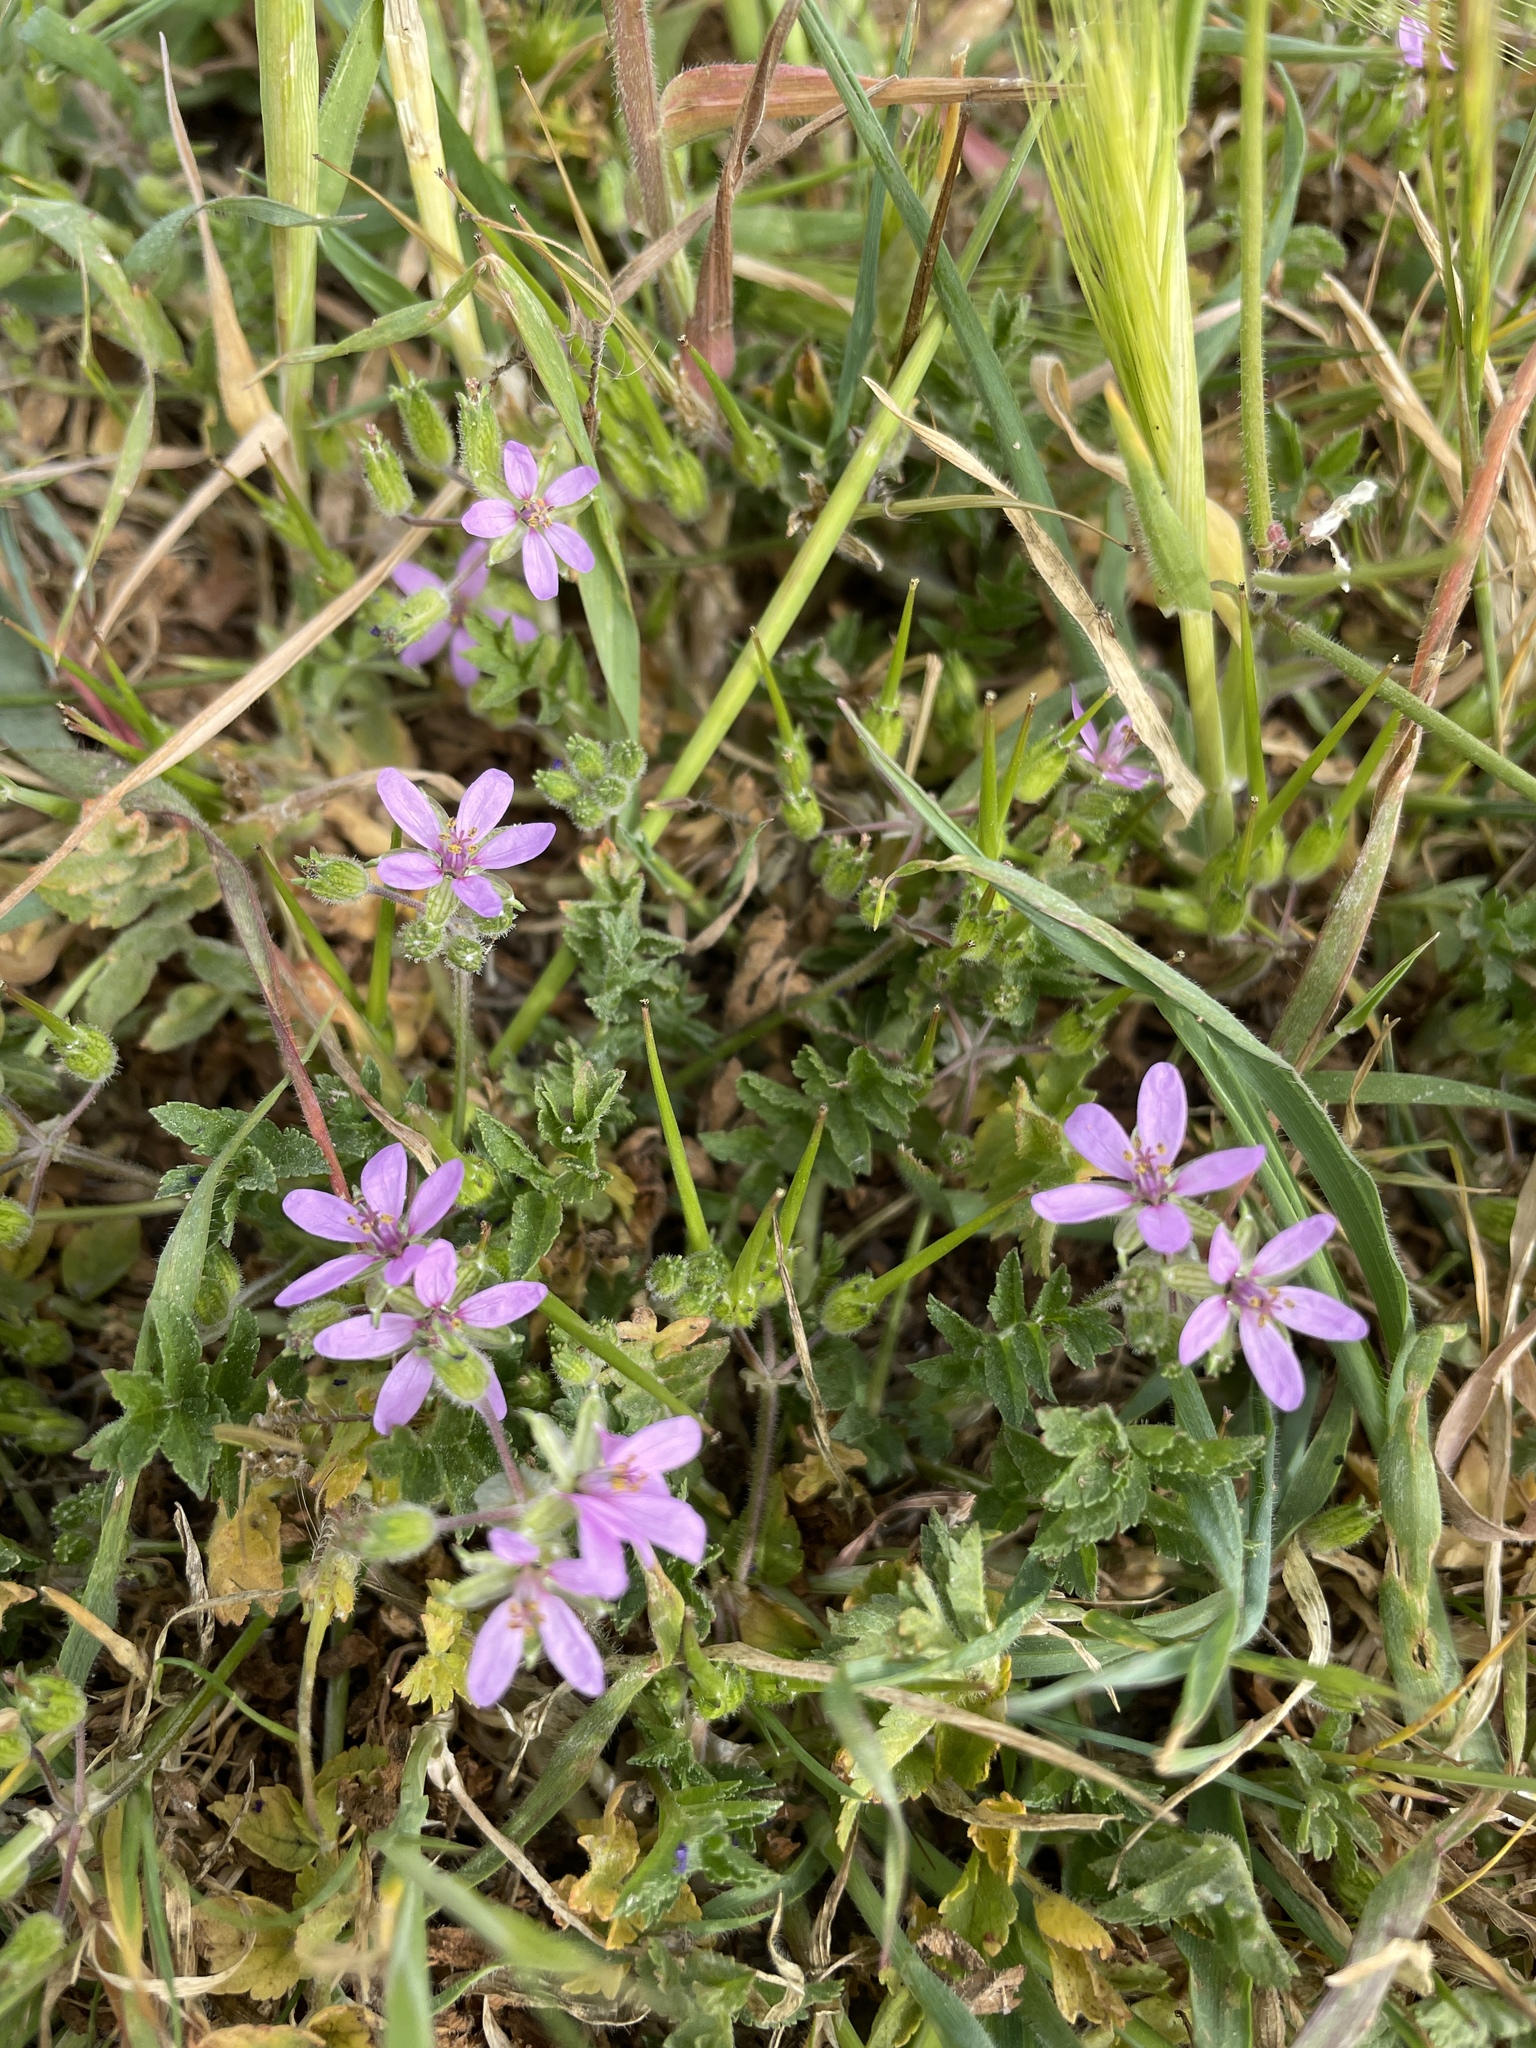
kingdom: Plantae
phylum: Tracheophyta
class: Magnoliopsida
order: Geraniales
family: Geraniaceae
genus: Erodium
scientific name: Erodium moschatum
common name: Musk stork's-bill
